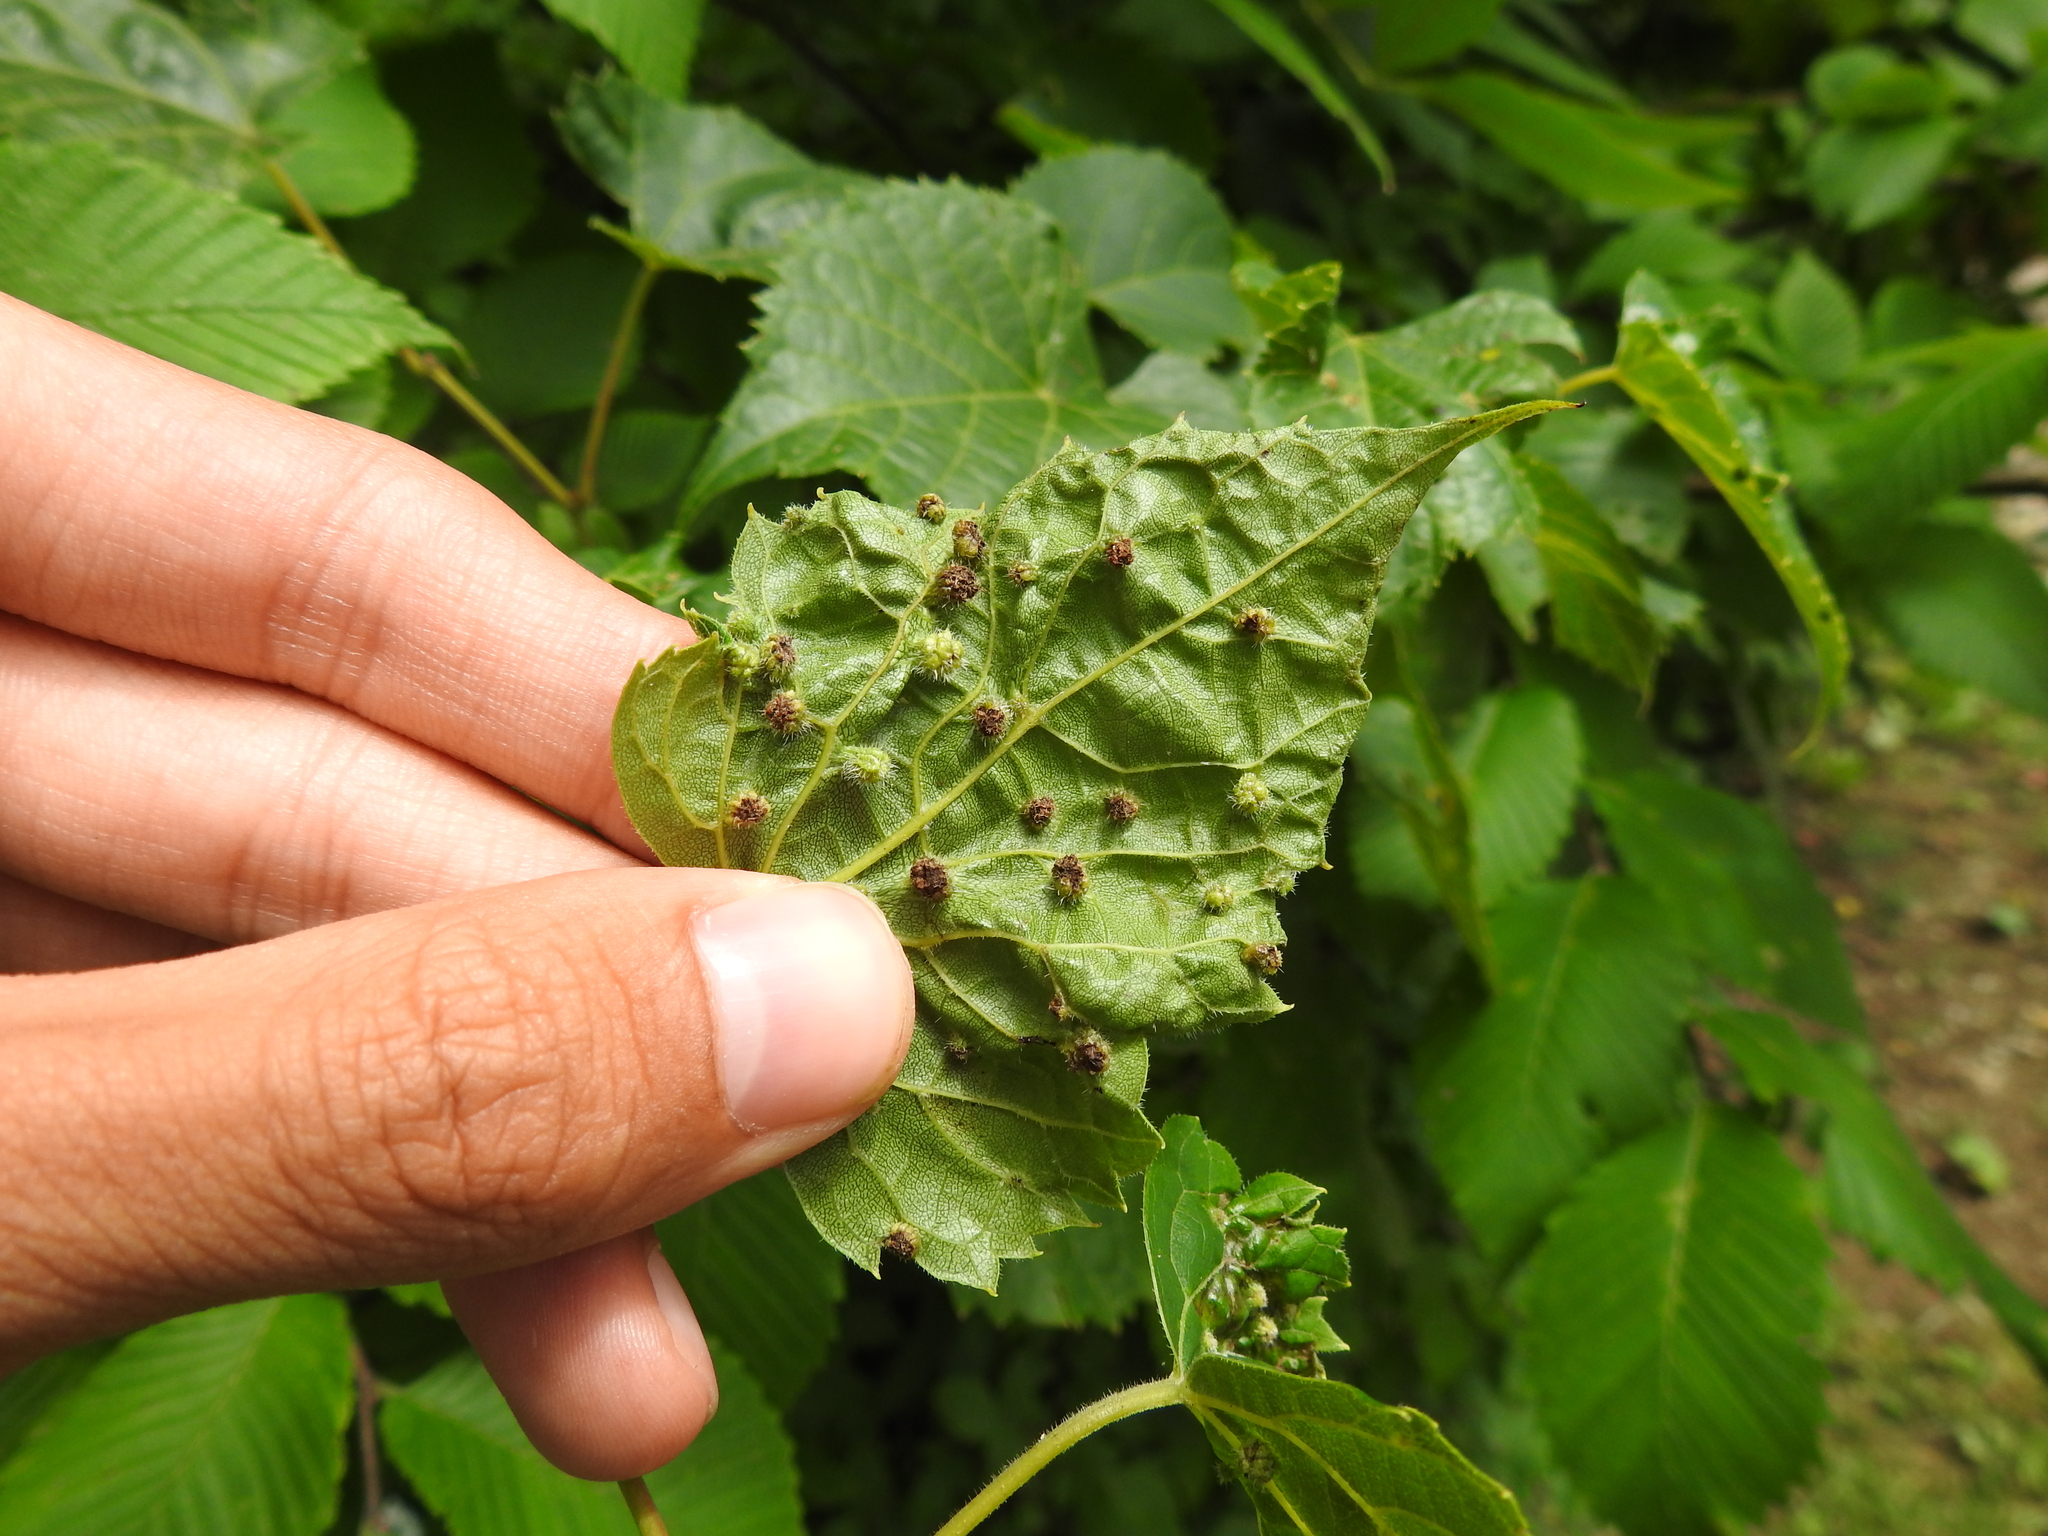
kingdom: Animalia
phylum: Arthropoda
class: Insecta
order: Hemiptera
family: Phylloxeridae
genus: Daktulosphaira
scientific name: Daktulosphaira vitifoliae
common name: Grape phylloxera
